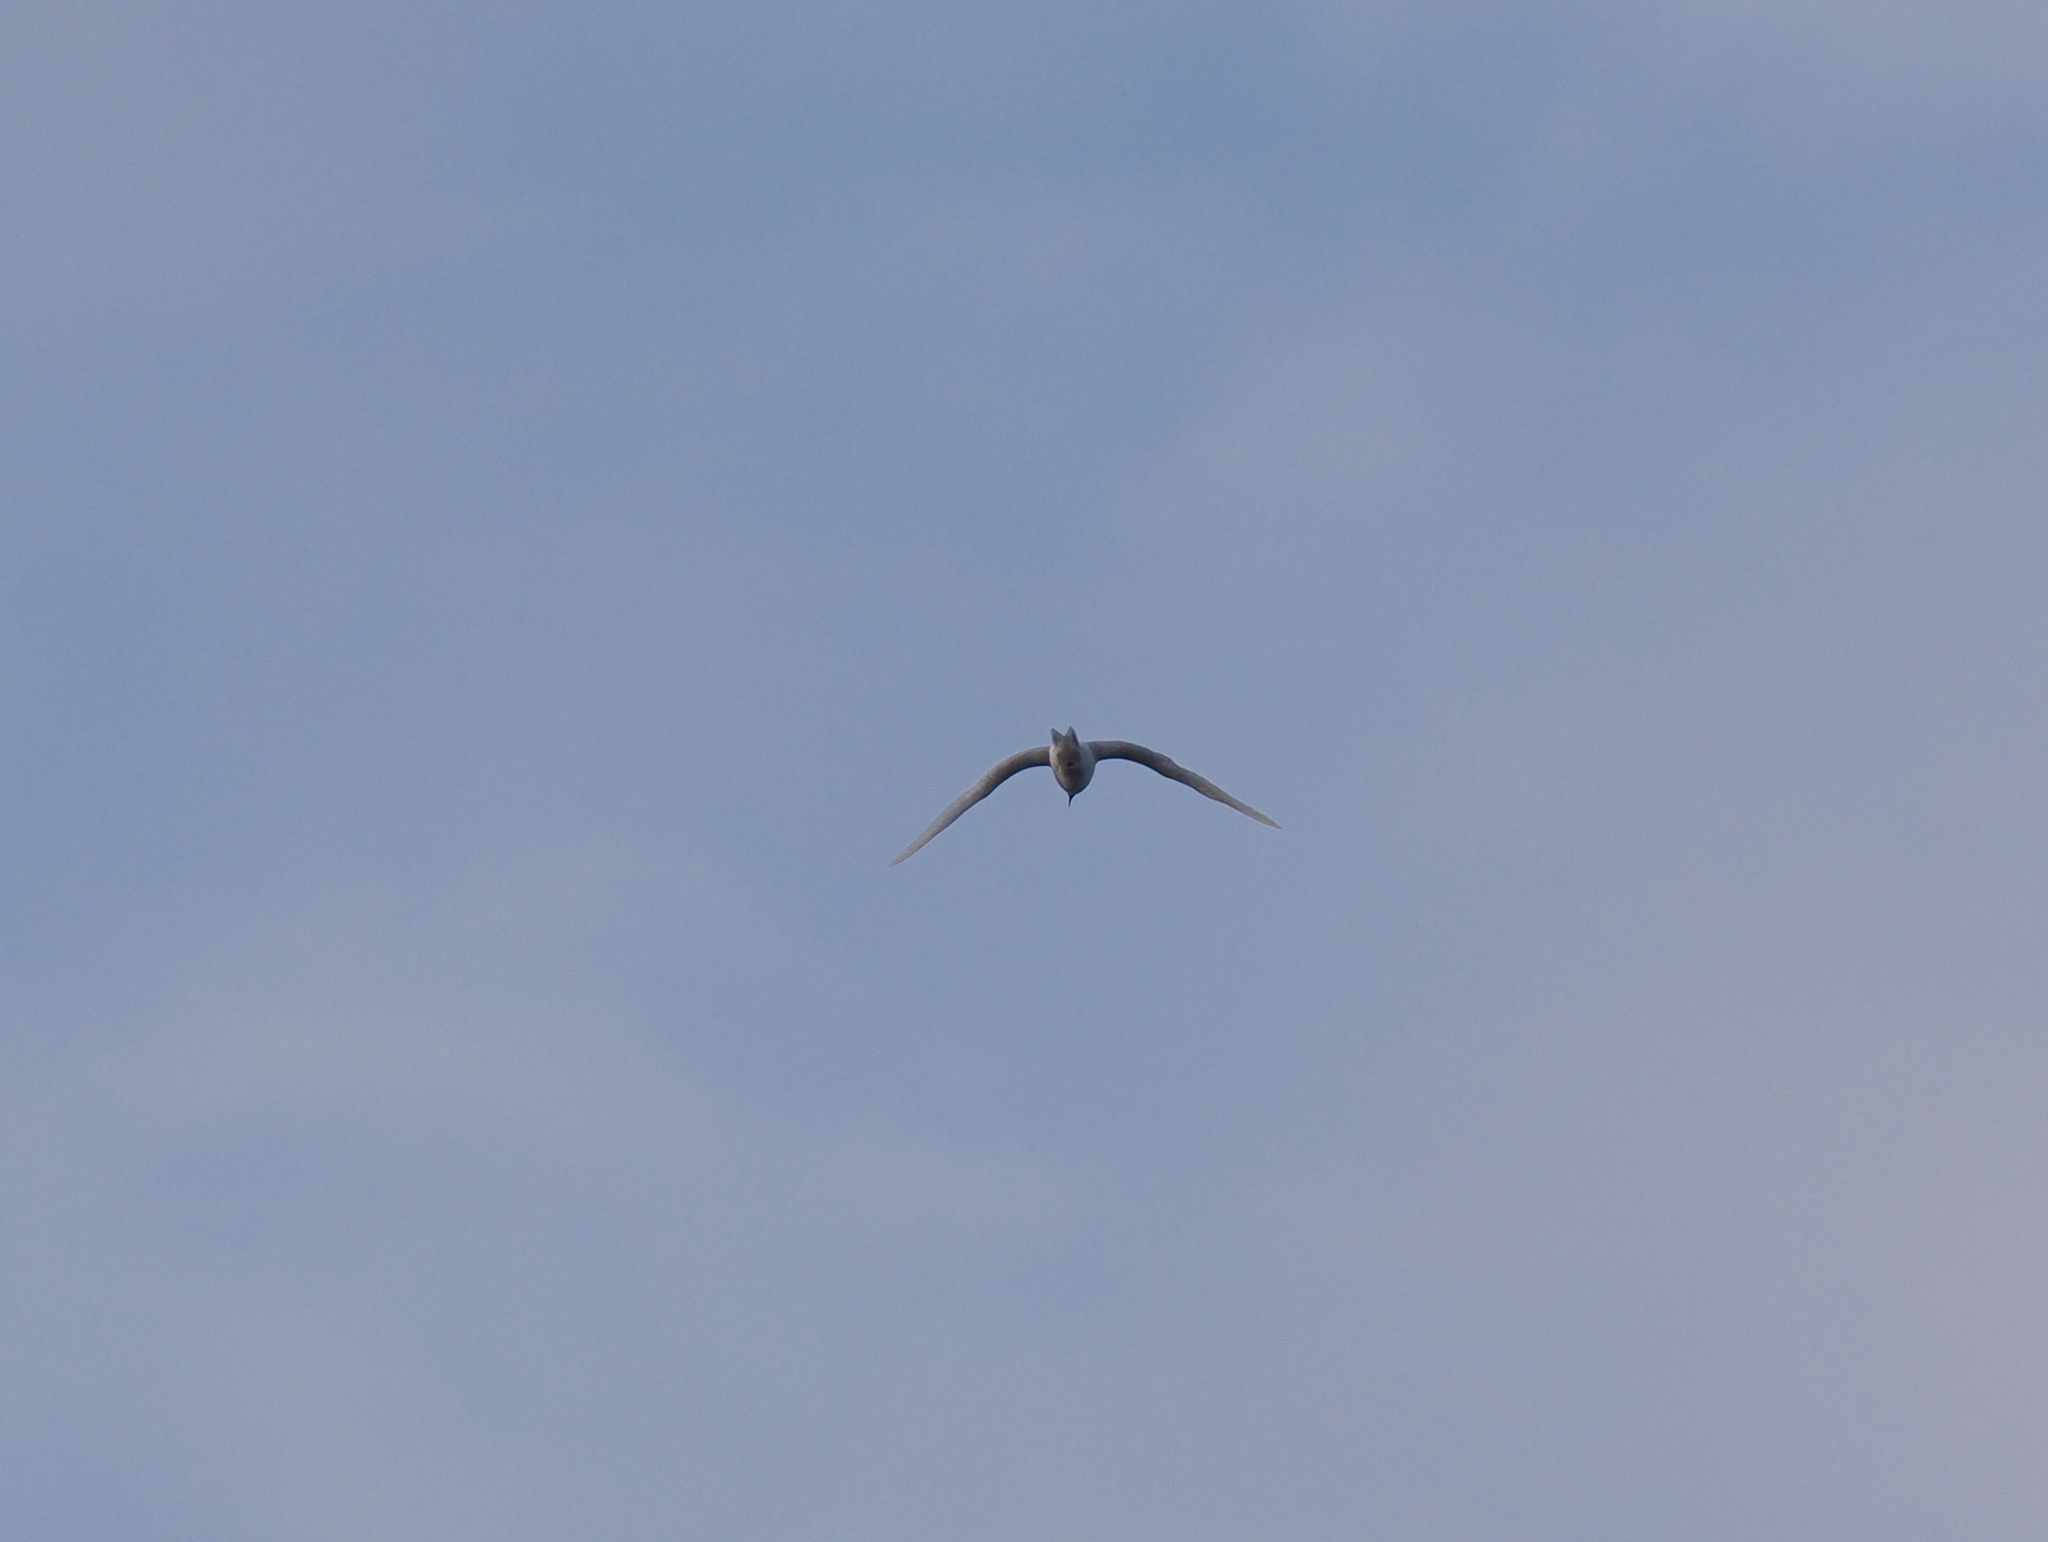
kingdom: Animalia
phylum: Chordata
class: Aves
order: Charadriiformes
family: Laridae
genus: Gygis
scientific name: Gygis alba
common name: White tern
